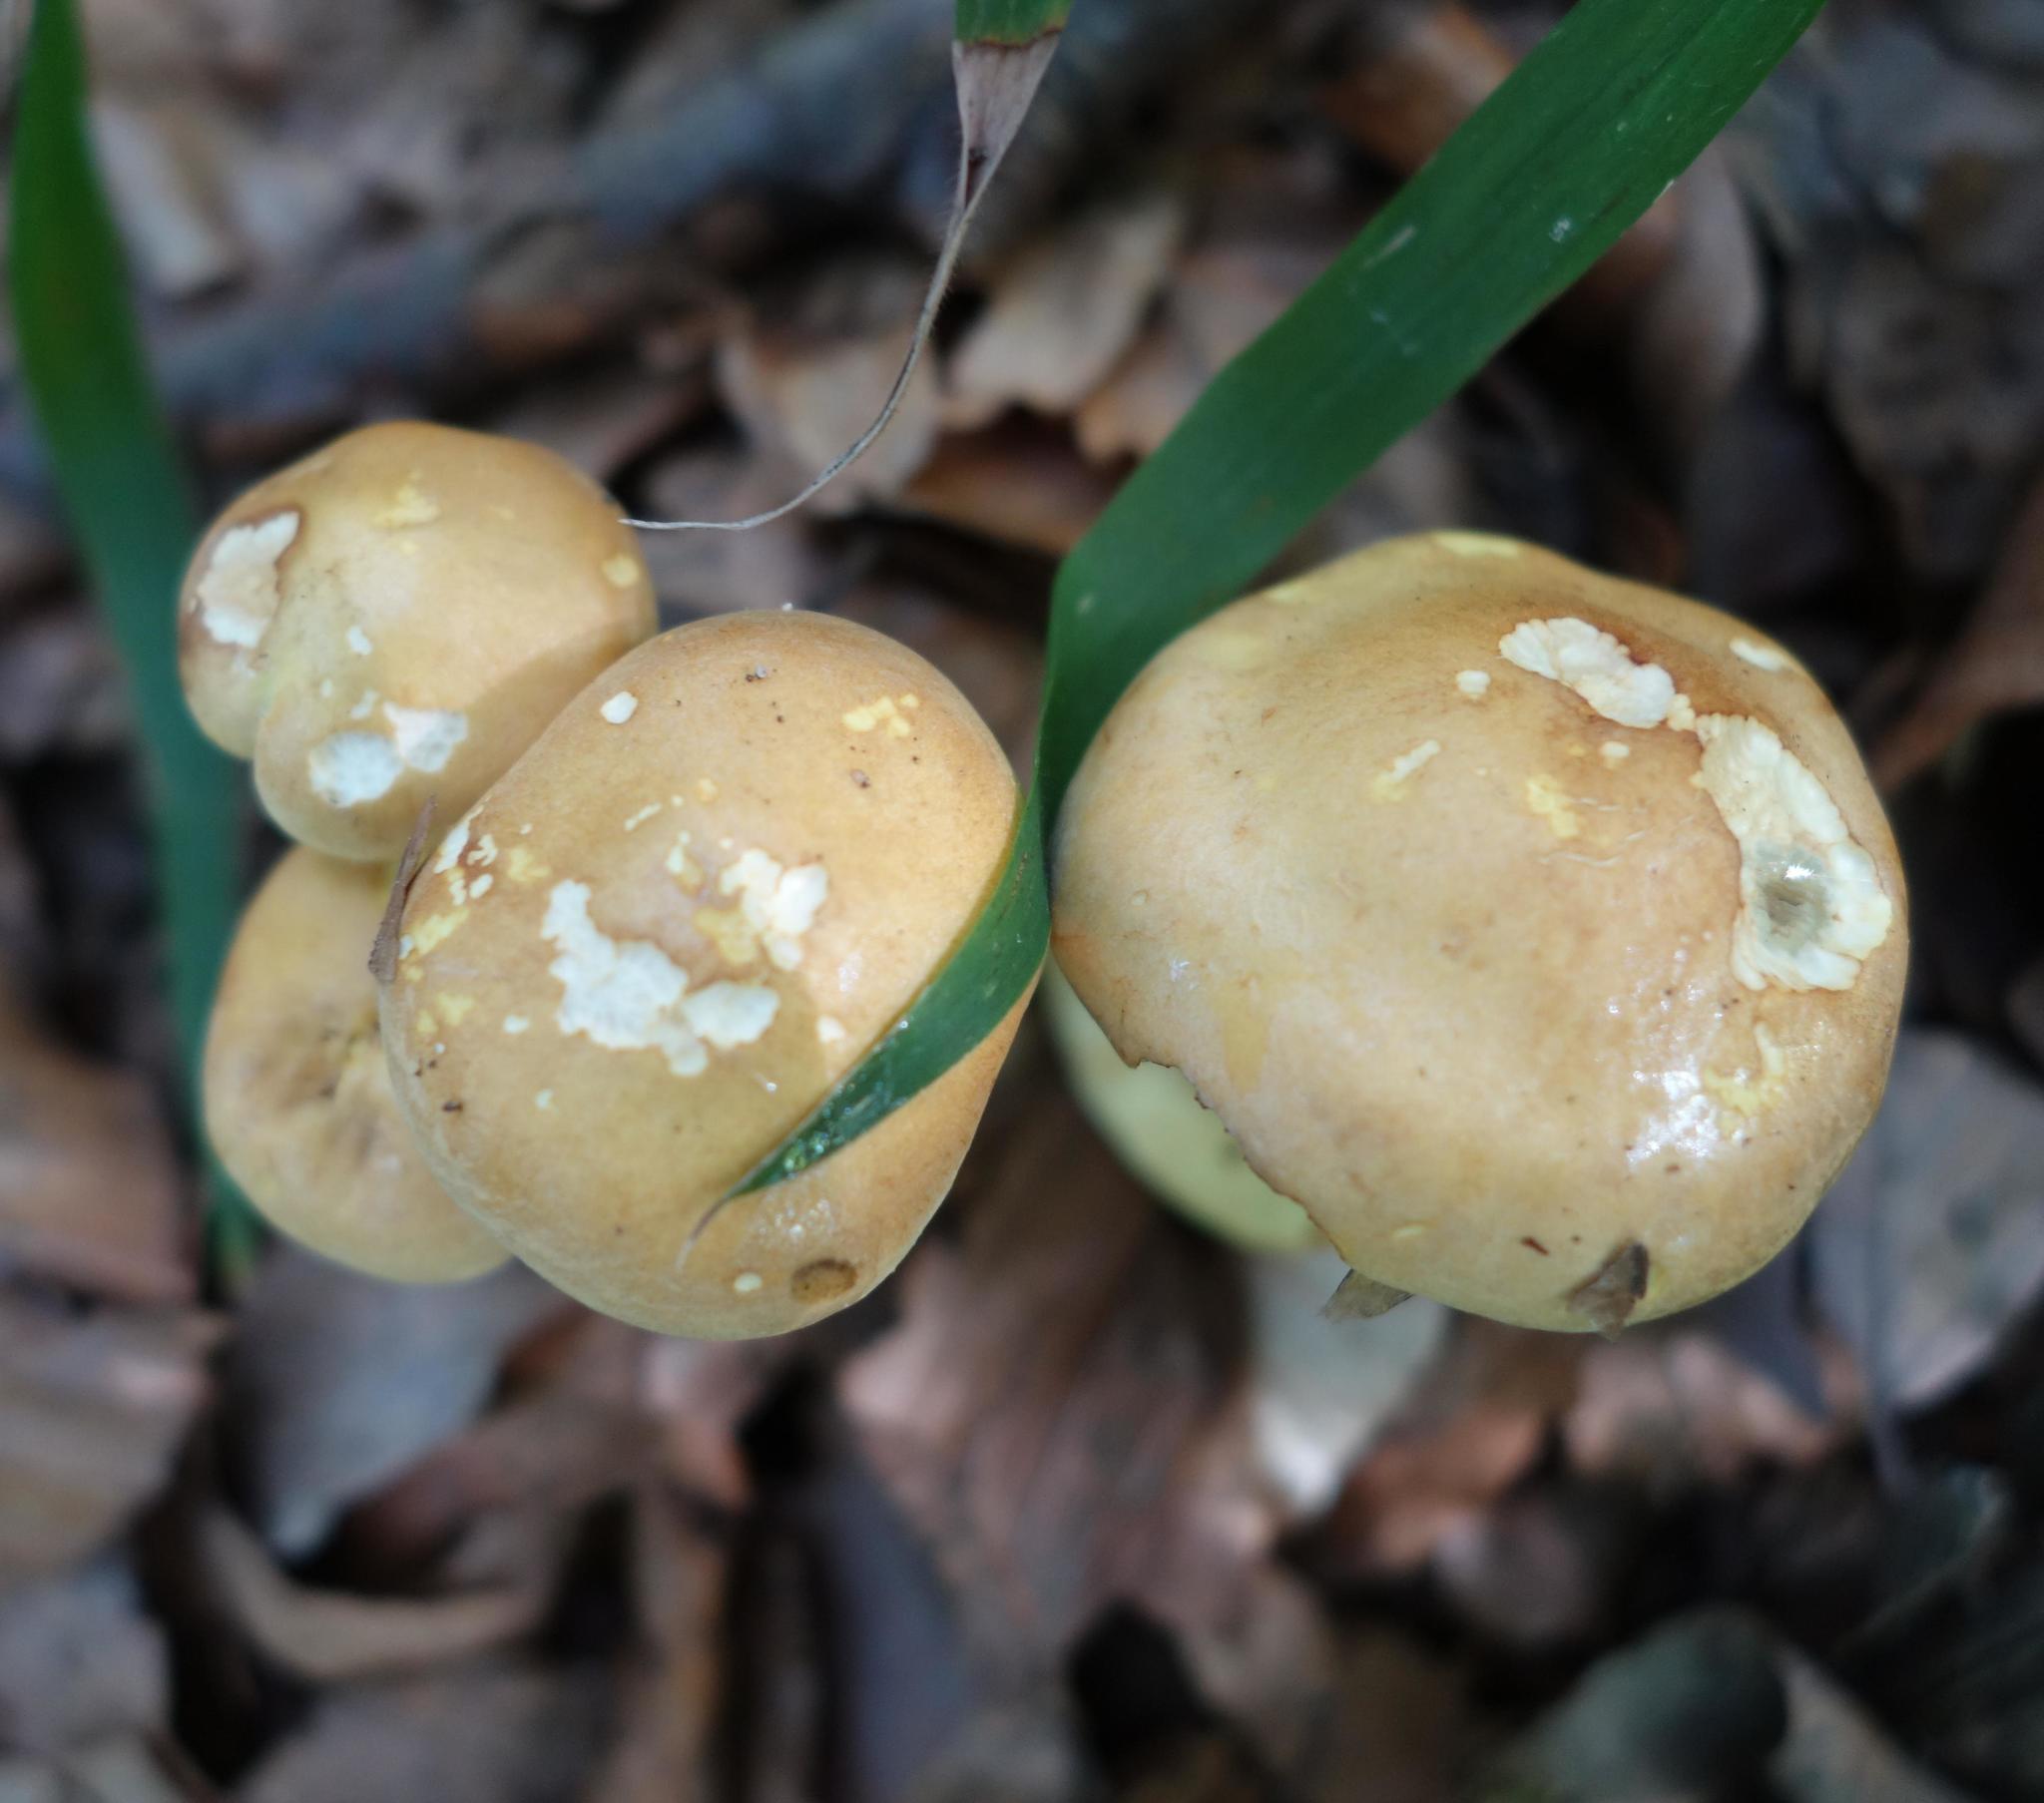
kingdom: Fungi
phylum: Basidiomycota
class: Agaricomycetes
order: Agaricales
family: Strophariaceae
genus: Hypholoma
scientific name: Hypholoma fasciculare
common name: Sulphur tuft
